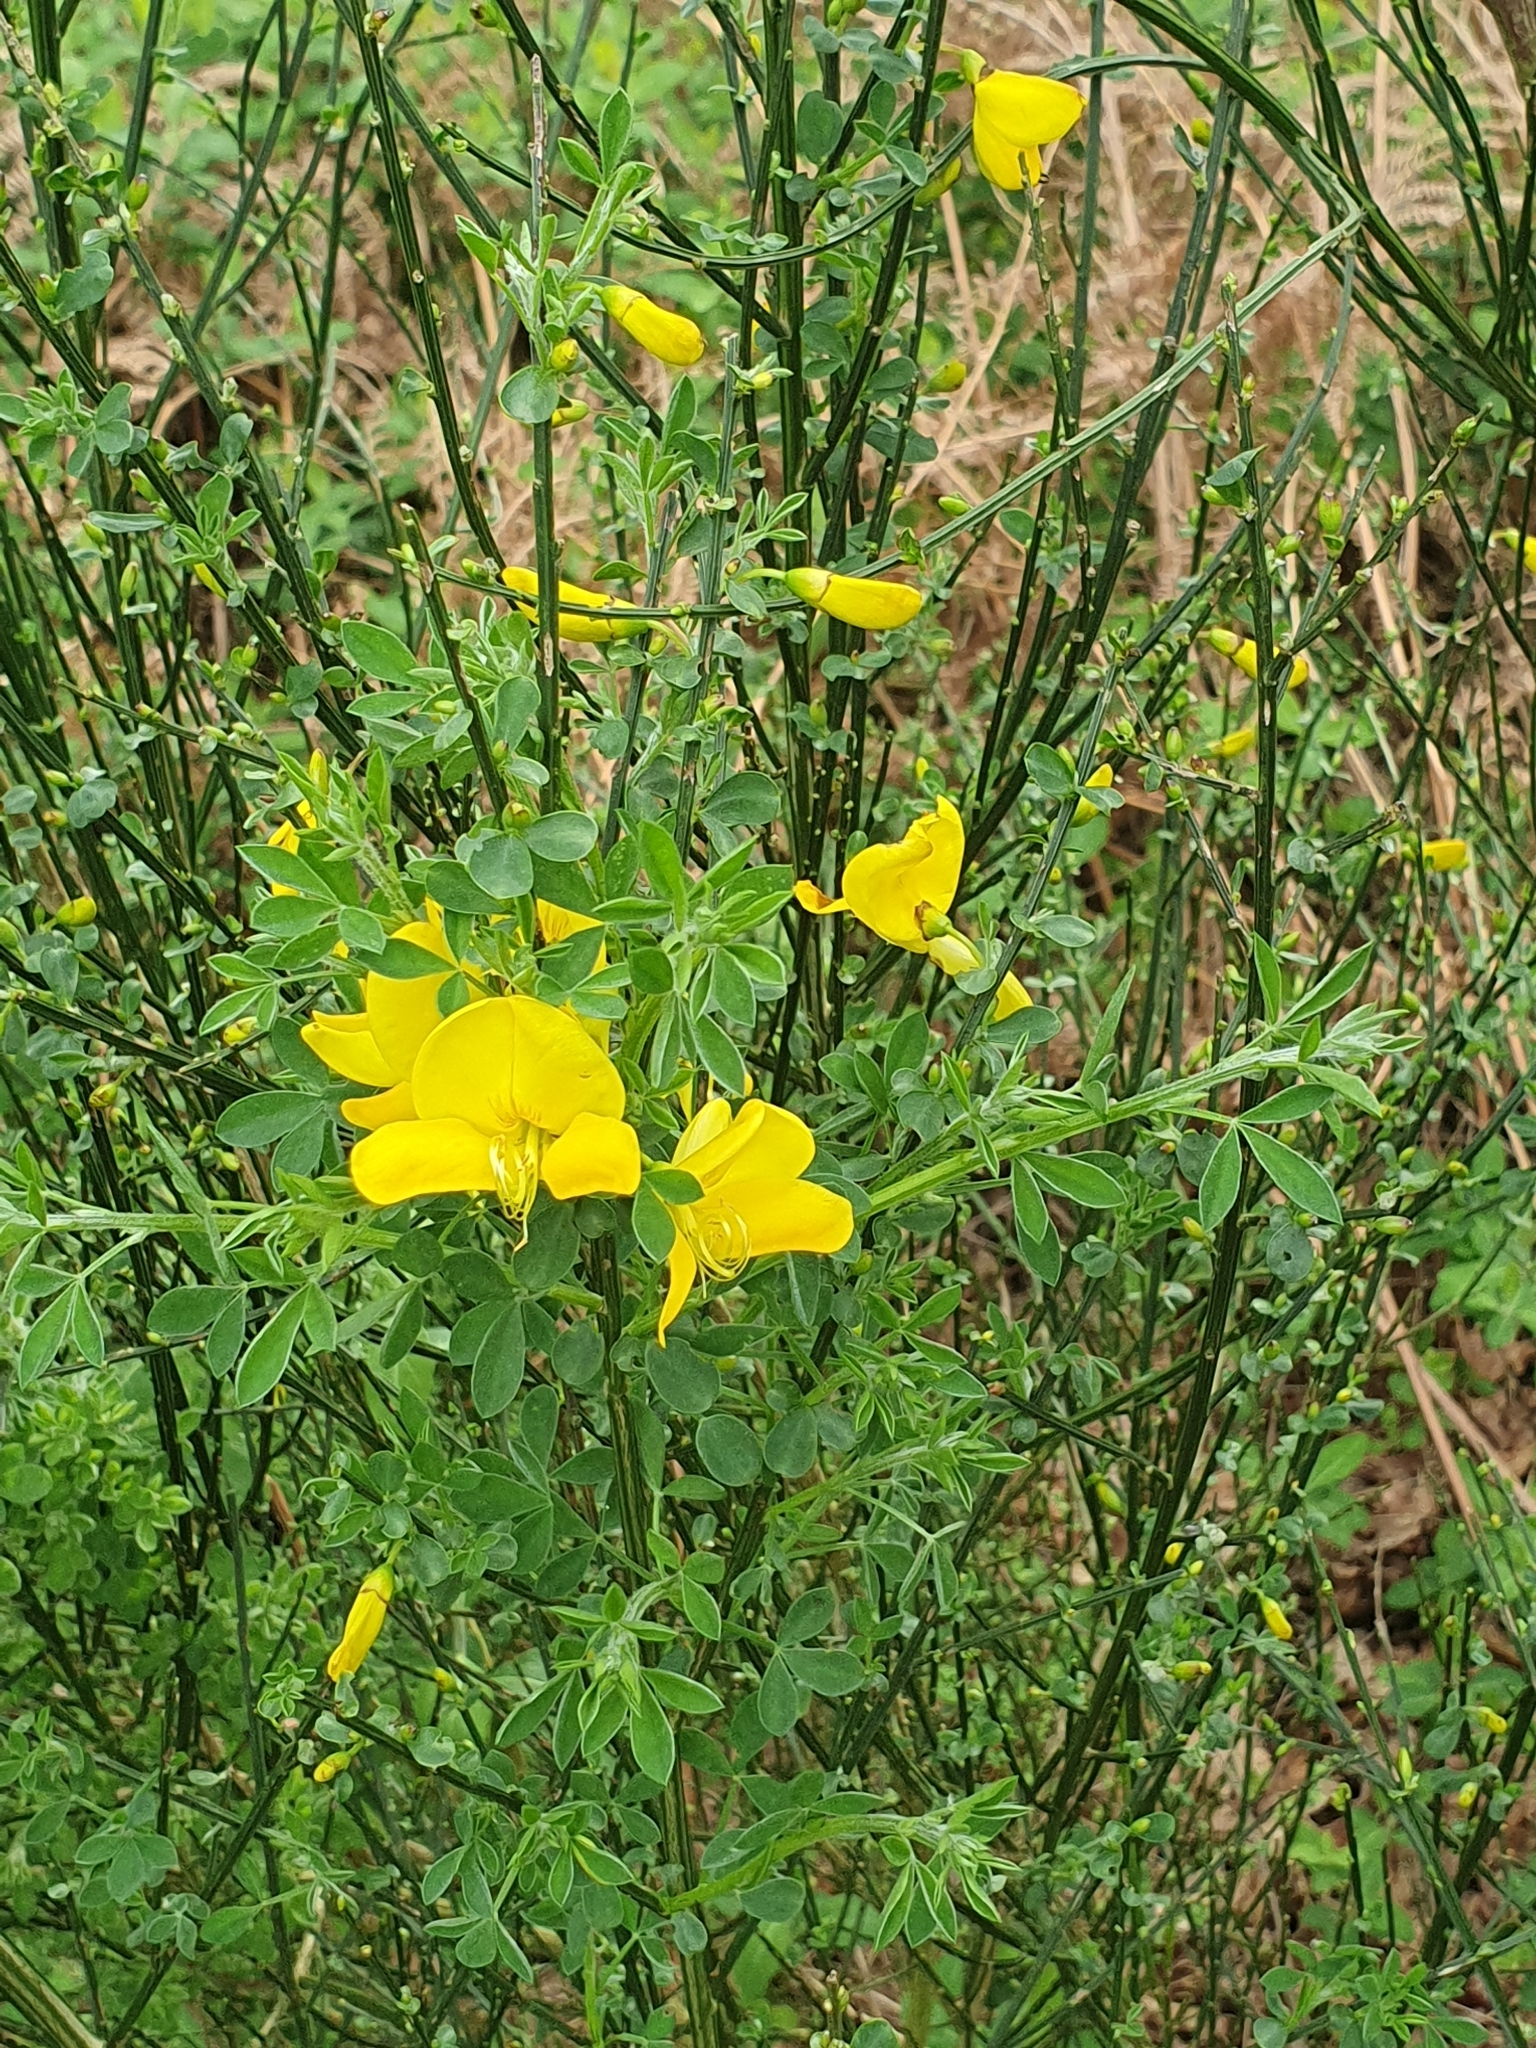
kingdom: Plantae
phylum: Tracheophyta
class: Magnoliopsida
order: Fabales
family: Fabaceae
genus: Cytisus
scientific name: Cytisus scoparius
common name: Scotch broom
